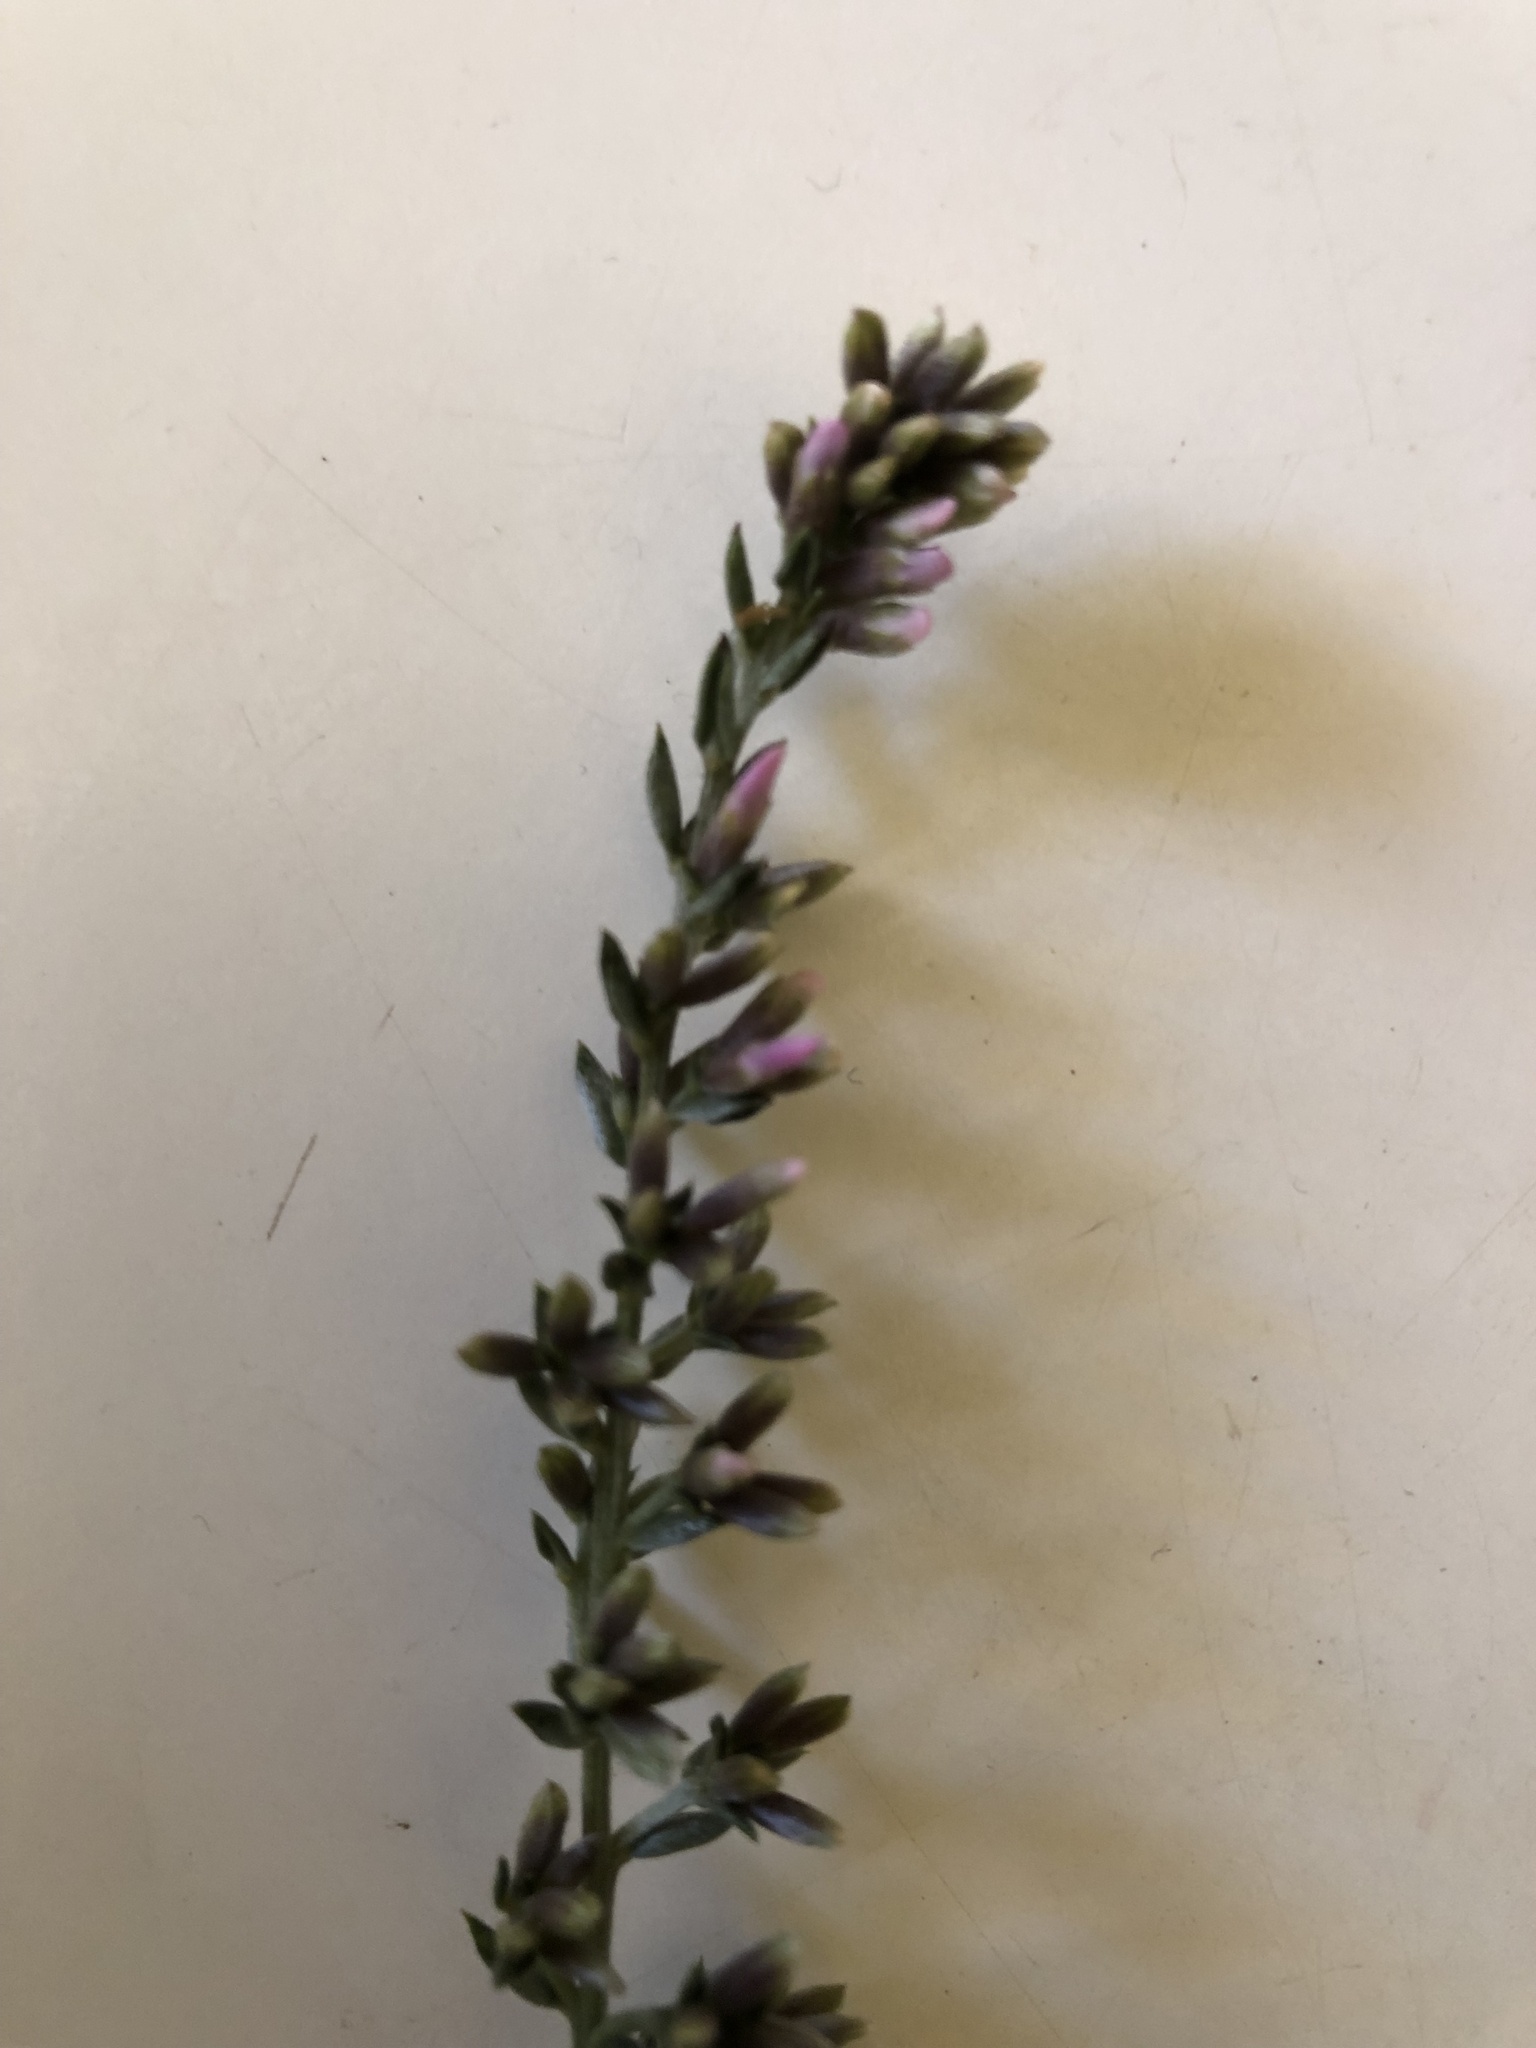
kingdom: Plantae
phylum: Tracheophyta
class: Magnoliopsida
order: Fabales
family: Fabaceae
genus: Amphithalea
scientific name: Amphithalea ericifolia
